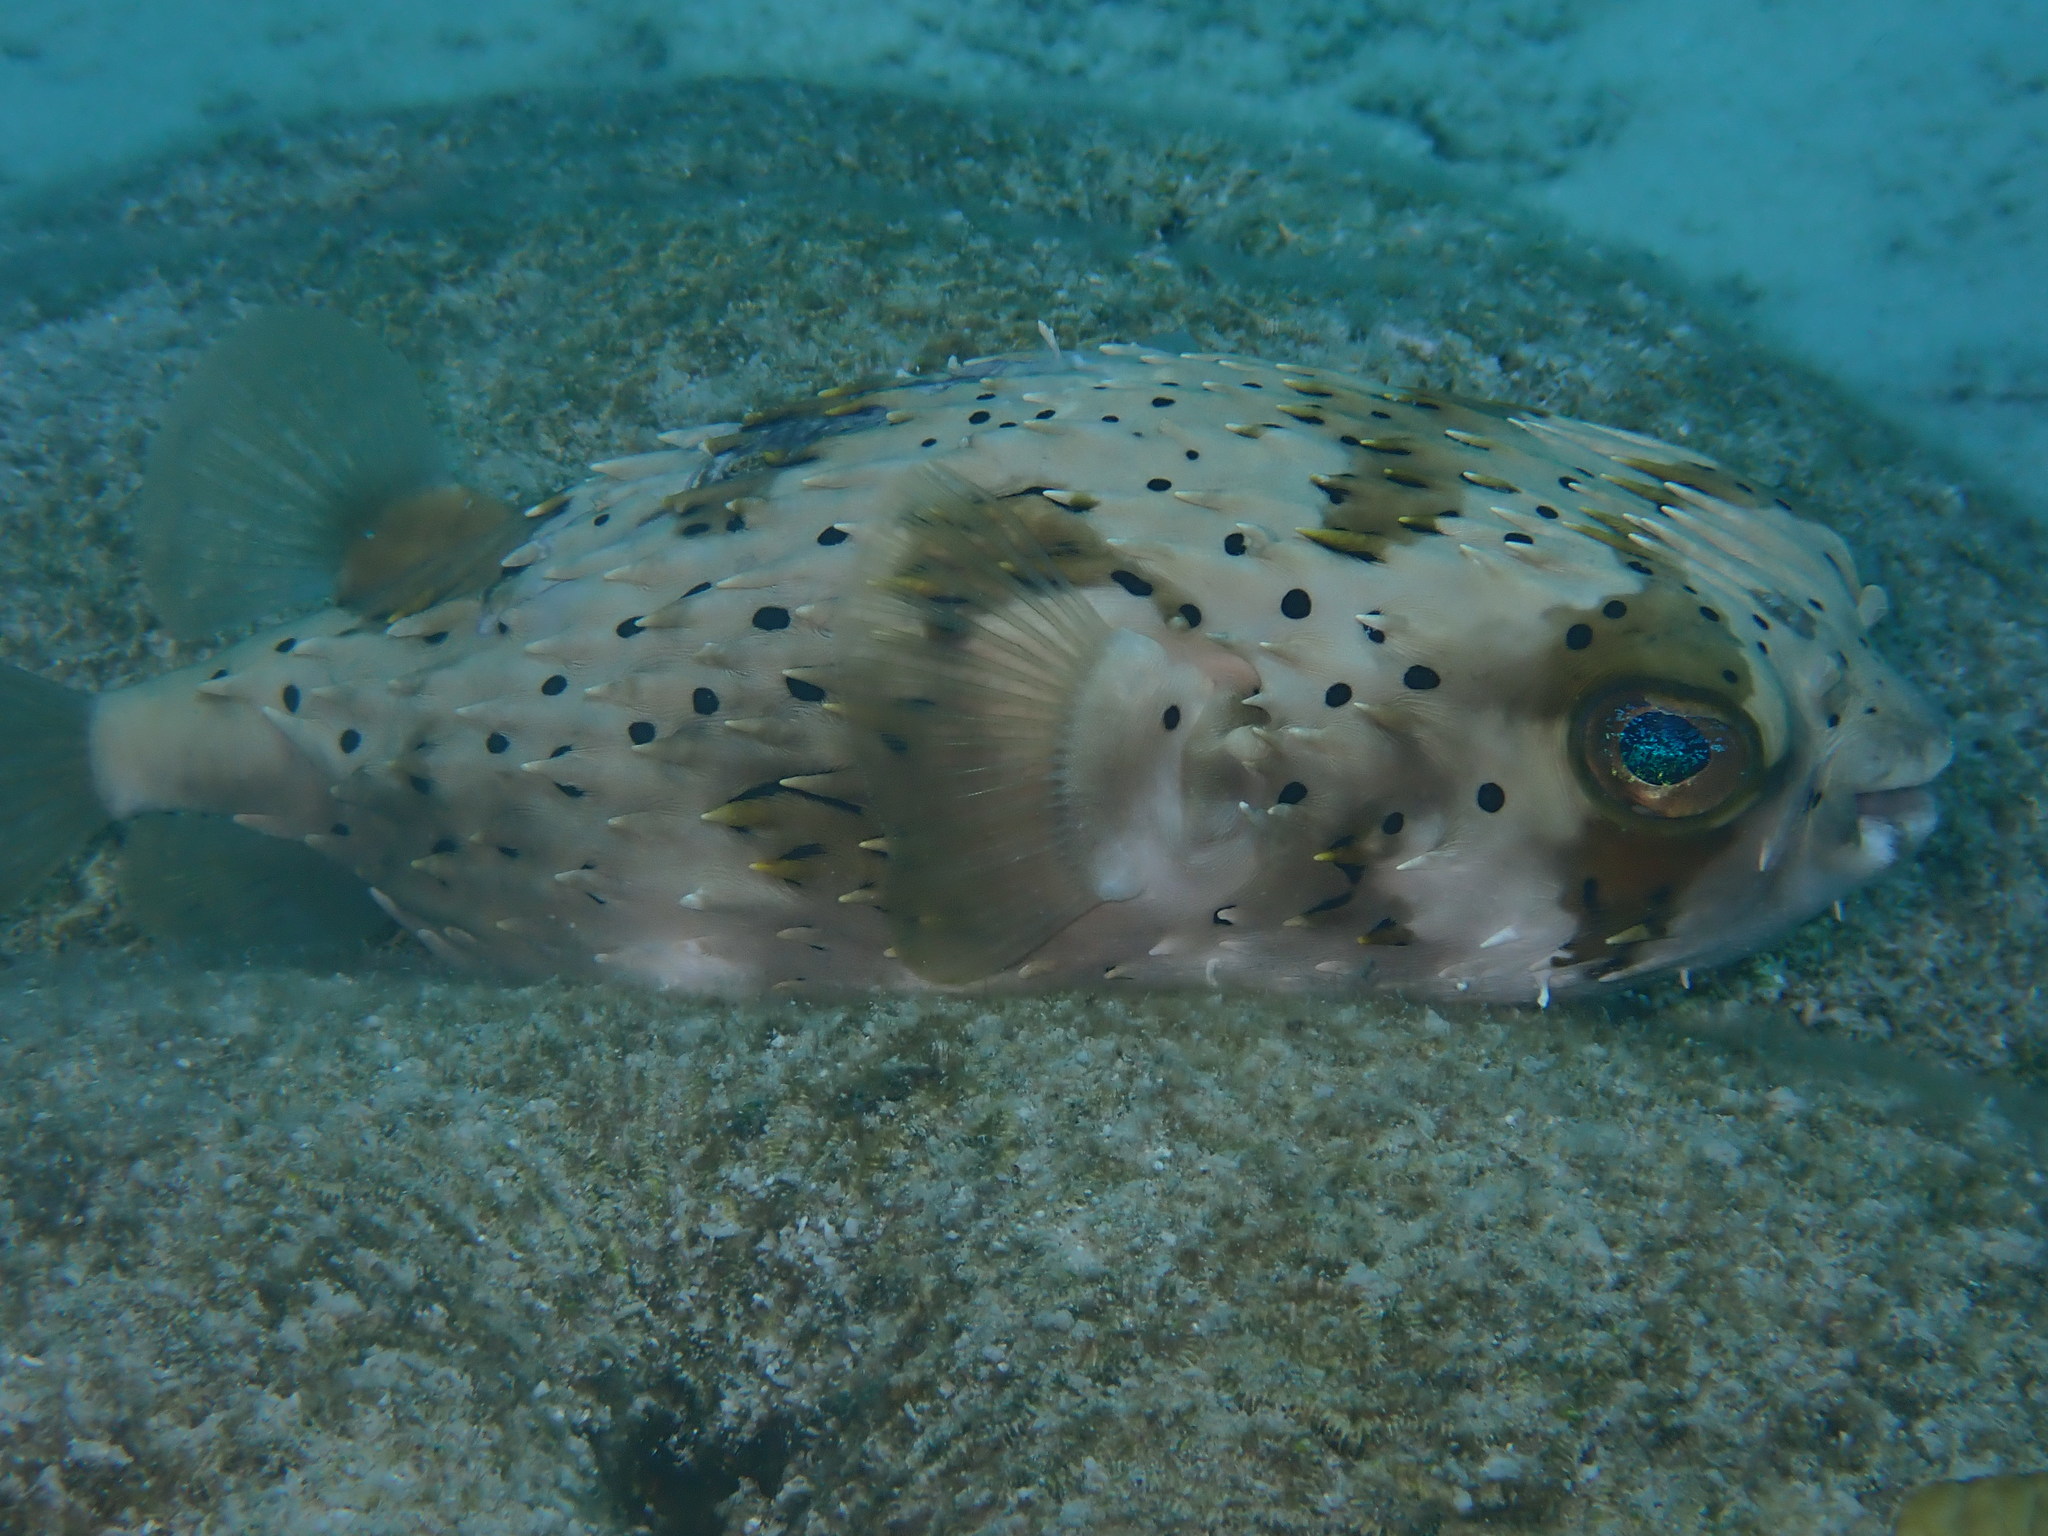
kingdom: Animalia
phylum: Chordata
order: Tetraodontiformes
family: Diodontidae
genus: Diodon
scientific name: Diodon holocanthus
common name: Balloonfish
